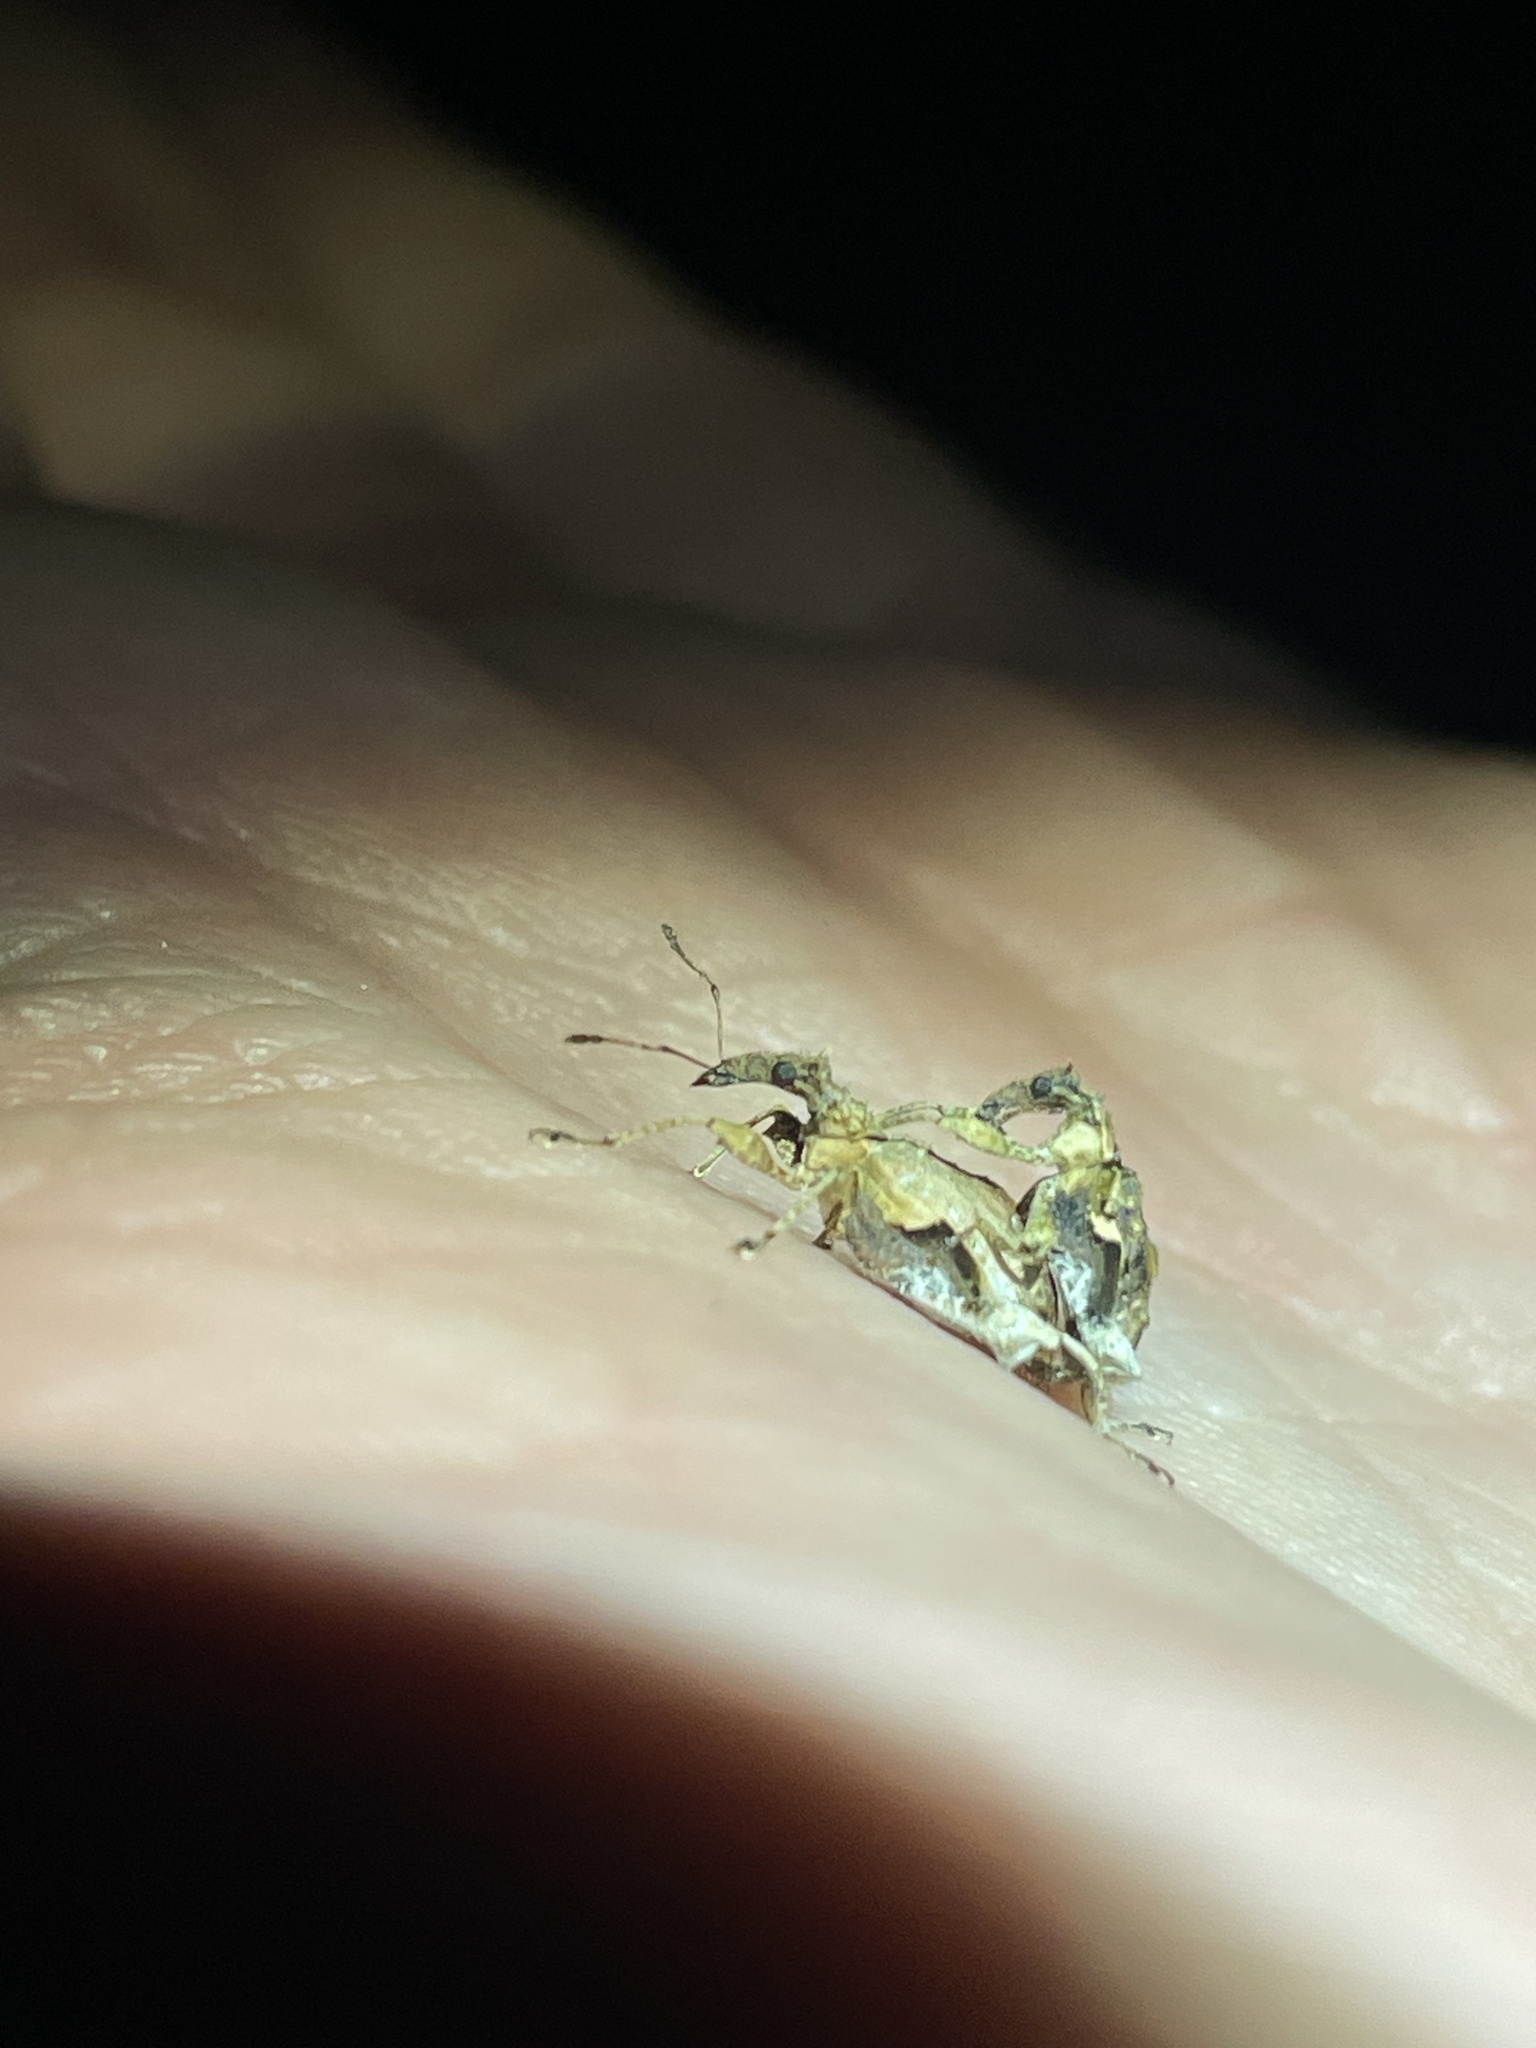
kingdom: Animalia
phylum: Arthropoda
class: Insecta
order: Coleoptera
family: Curculionidae
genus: Stephanorhynchus
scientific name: Stephanorhynchus curvipes
